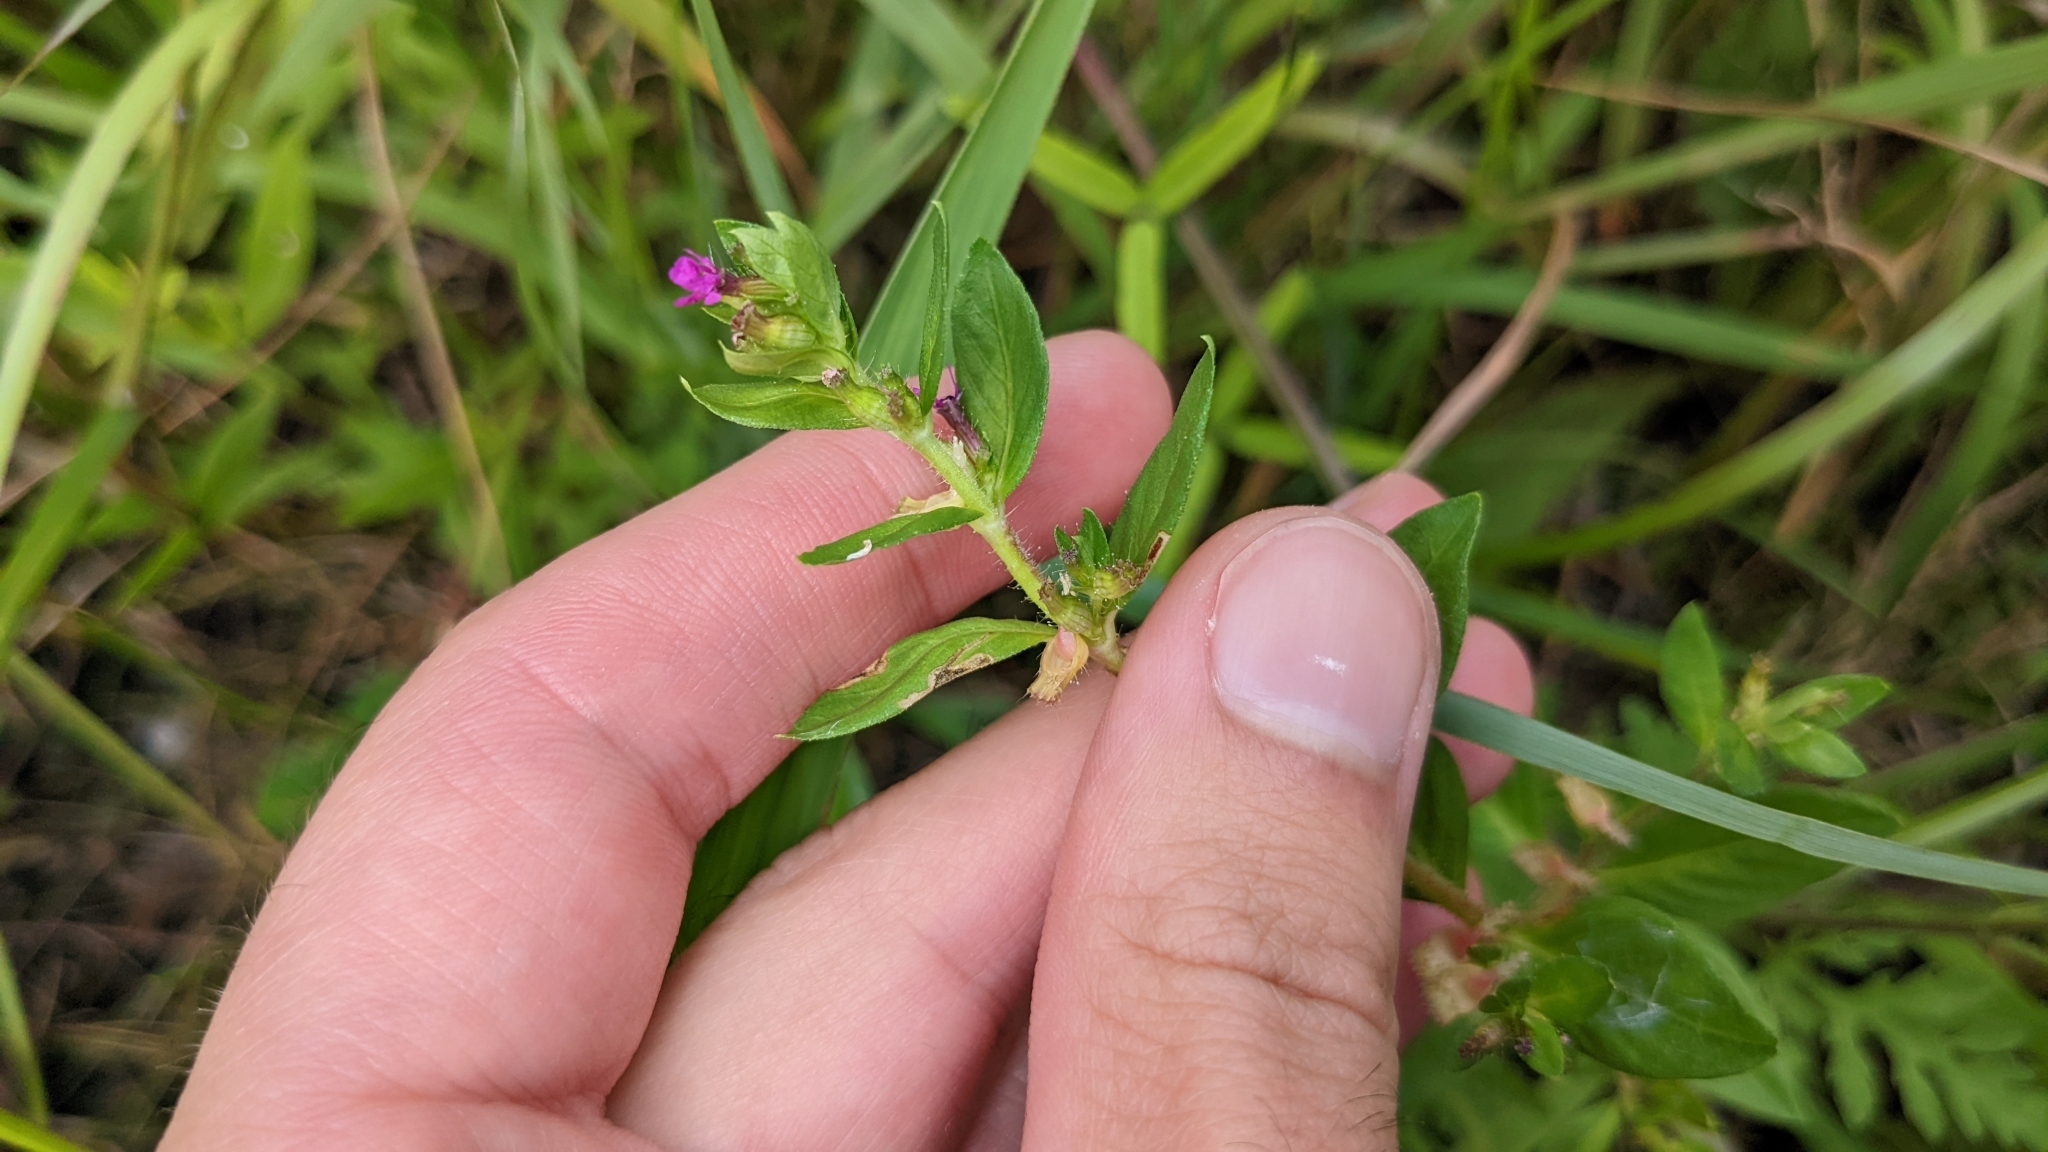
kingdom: Plantae
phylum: Tracheophyta
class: Magnoliopsida
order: Myrtales
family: Lythraceae
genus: Cuphea
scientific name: Cuphea carthagenensis
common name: Colombian waxweed
